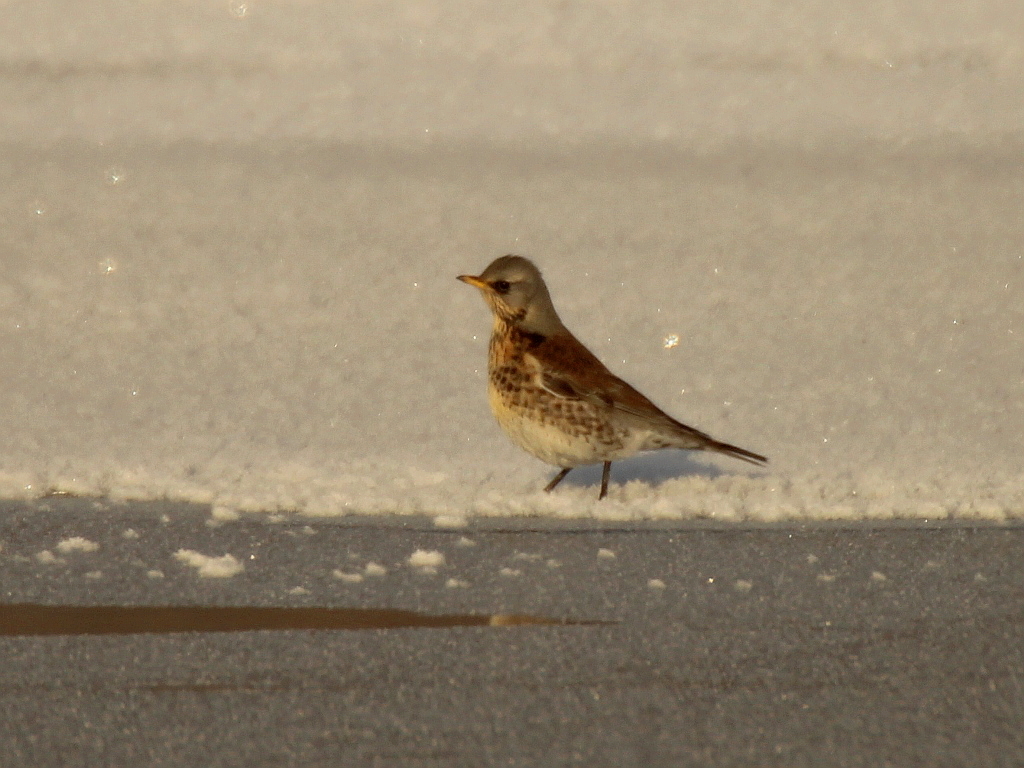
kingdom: Animalia
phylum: Chordata
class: Aves
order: Passeriformes
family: Turdidae
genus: Turdus
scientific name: Turdus pilaris
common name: Fieldfare
